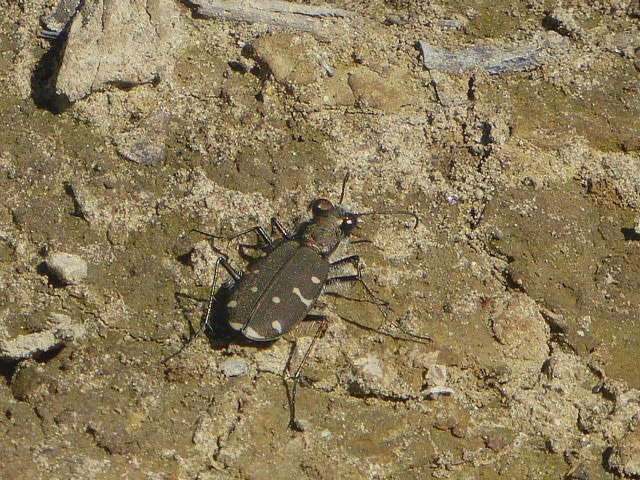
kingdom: Animalia
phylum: Arthropoda
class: Insecta
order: Coleoptera
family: Carabidae
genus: Cicindela
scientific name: Cicindela duodecimguttata
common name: Twelve-spotted tiger beetle
